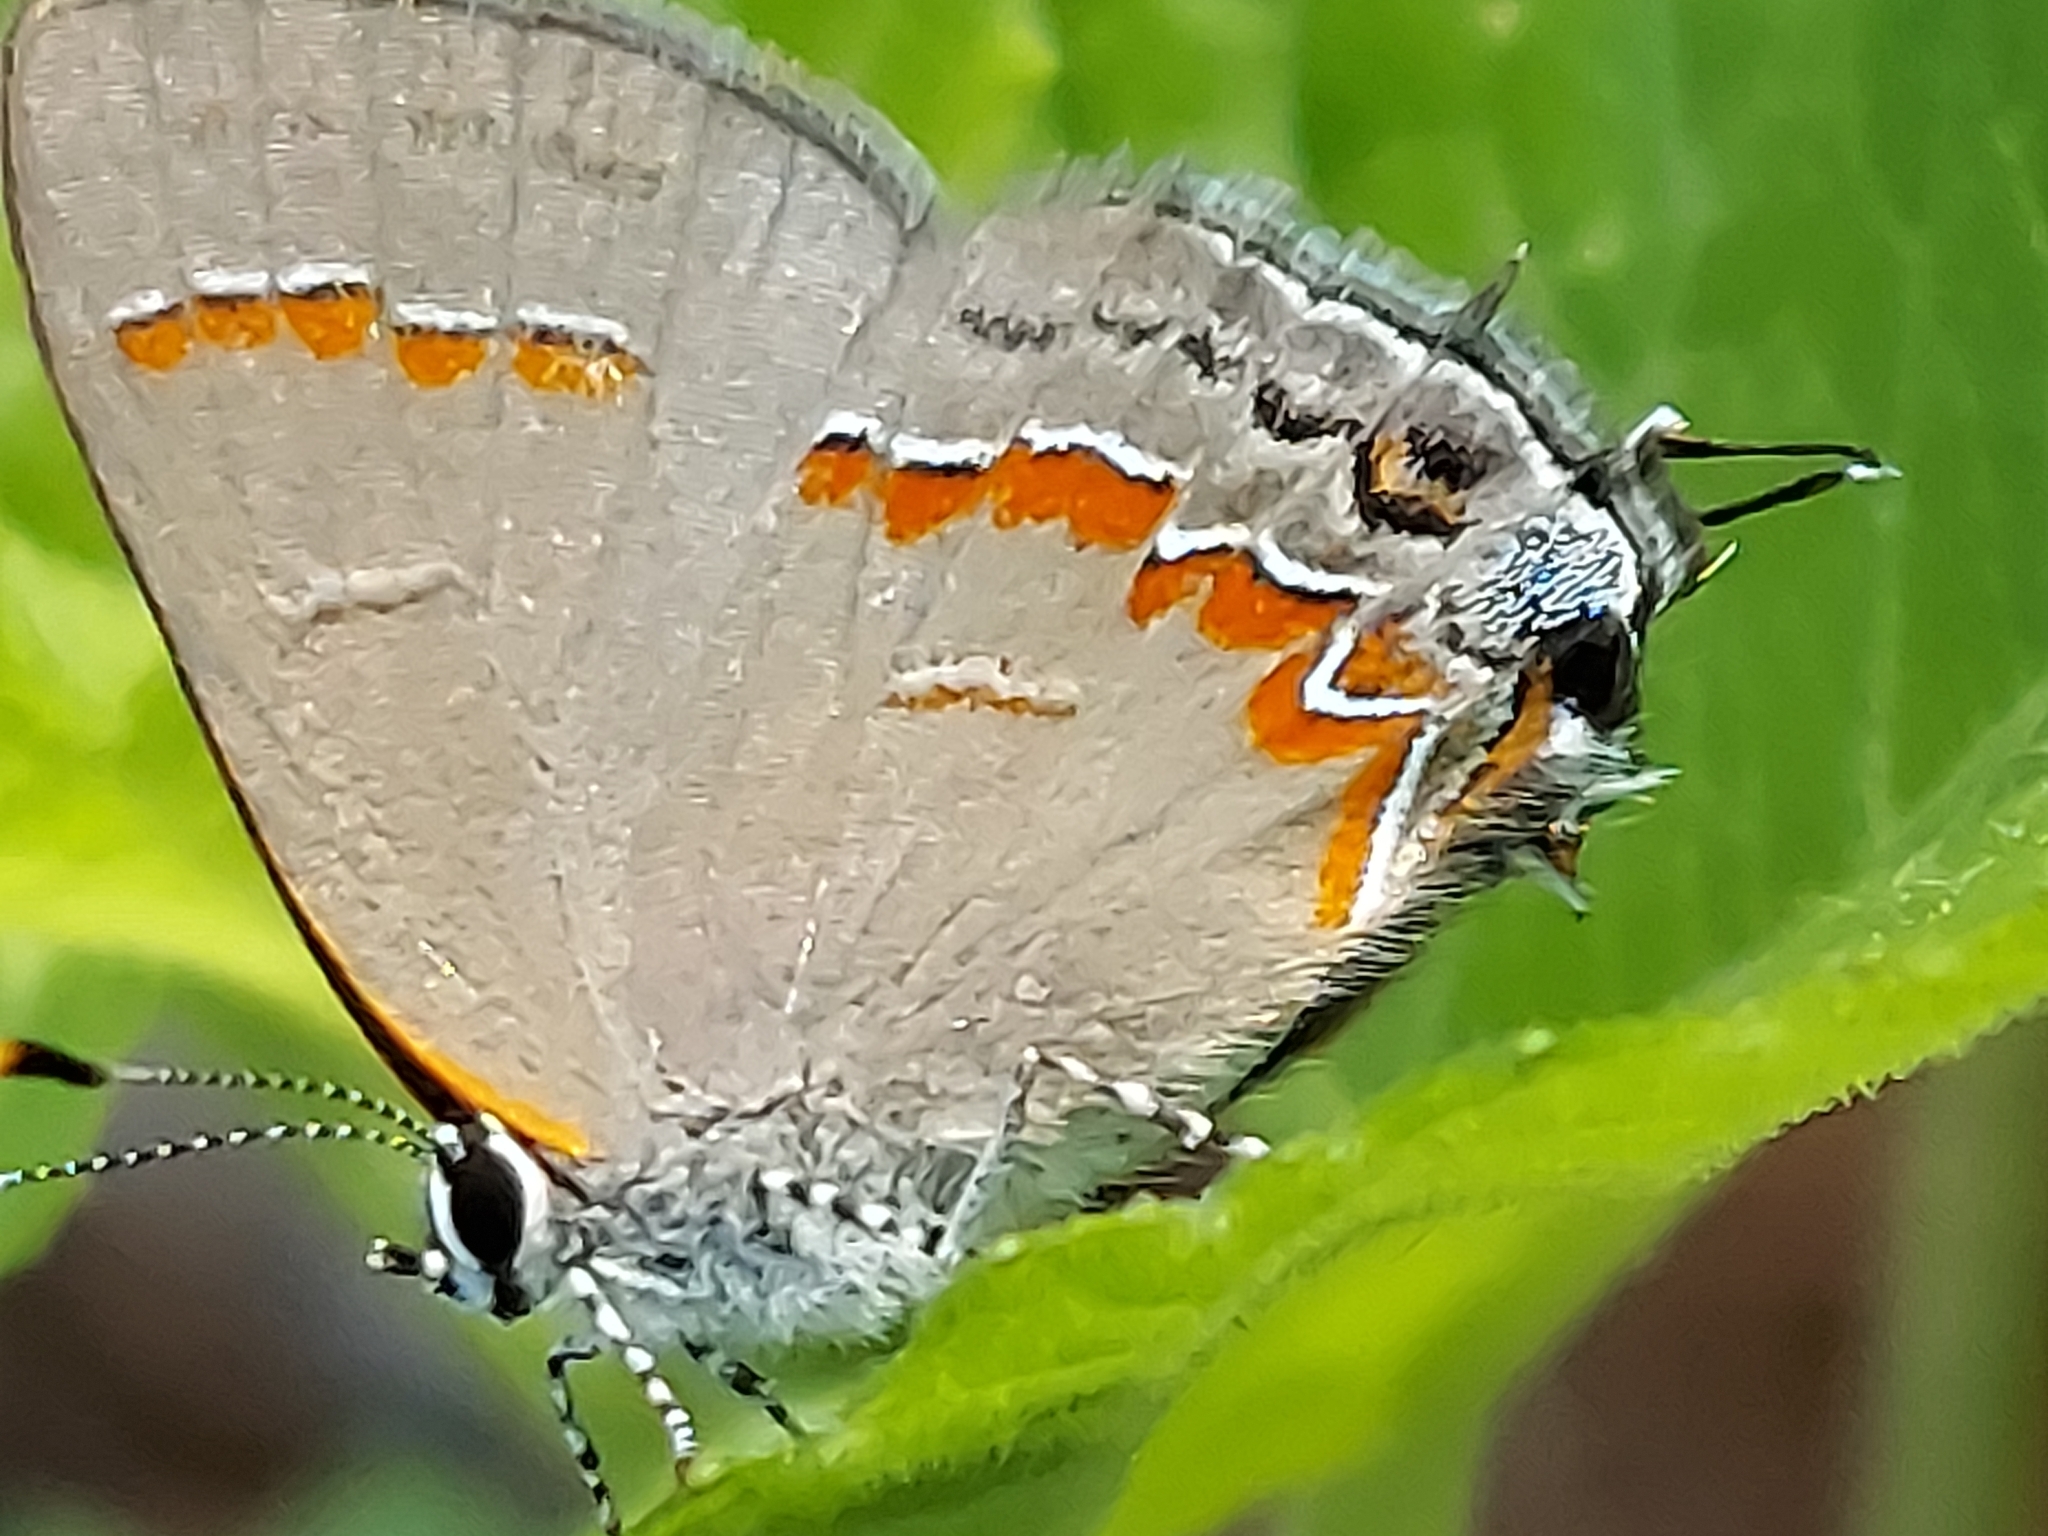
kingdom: Animalia
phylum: Arthropoda
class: Insecta
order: Lepidoptera
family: Lycaenidae
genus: Calycopis
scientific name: Calycopis cecrops
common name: Red-banded hairstreak
